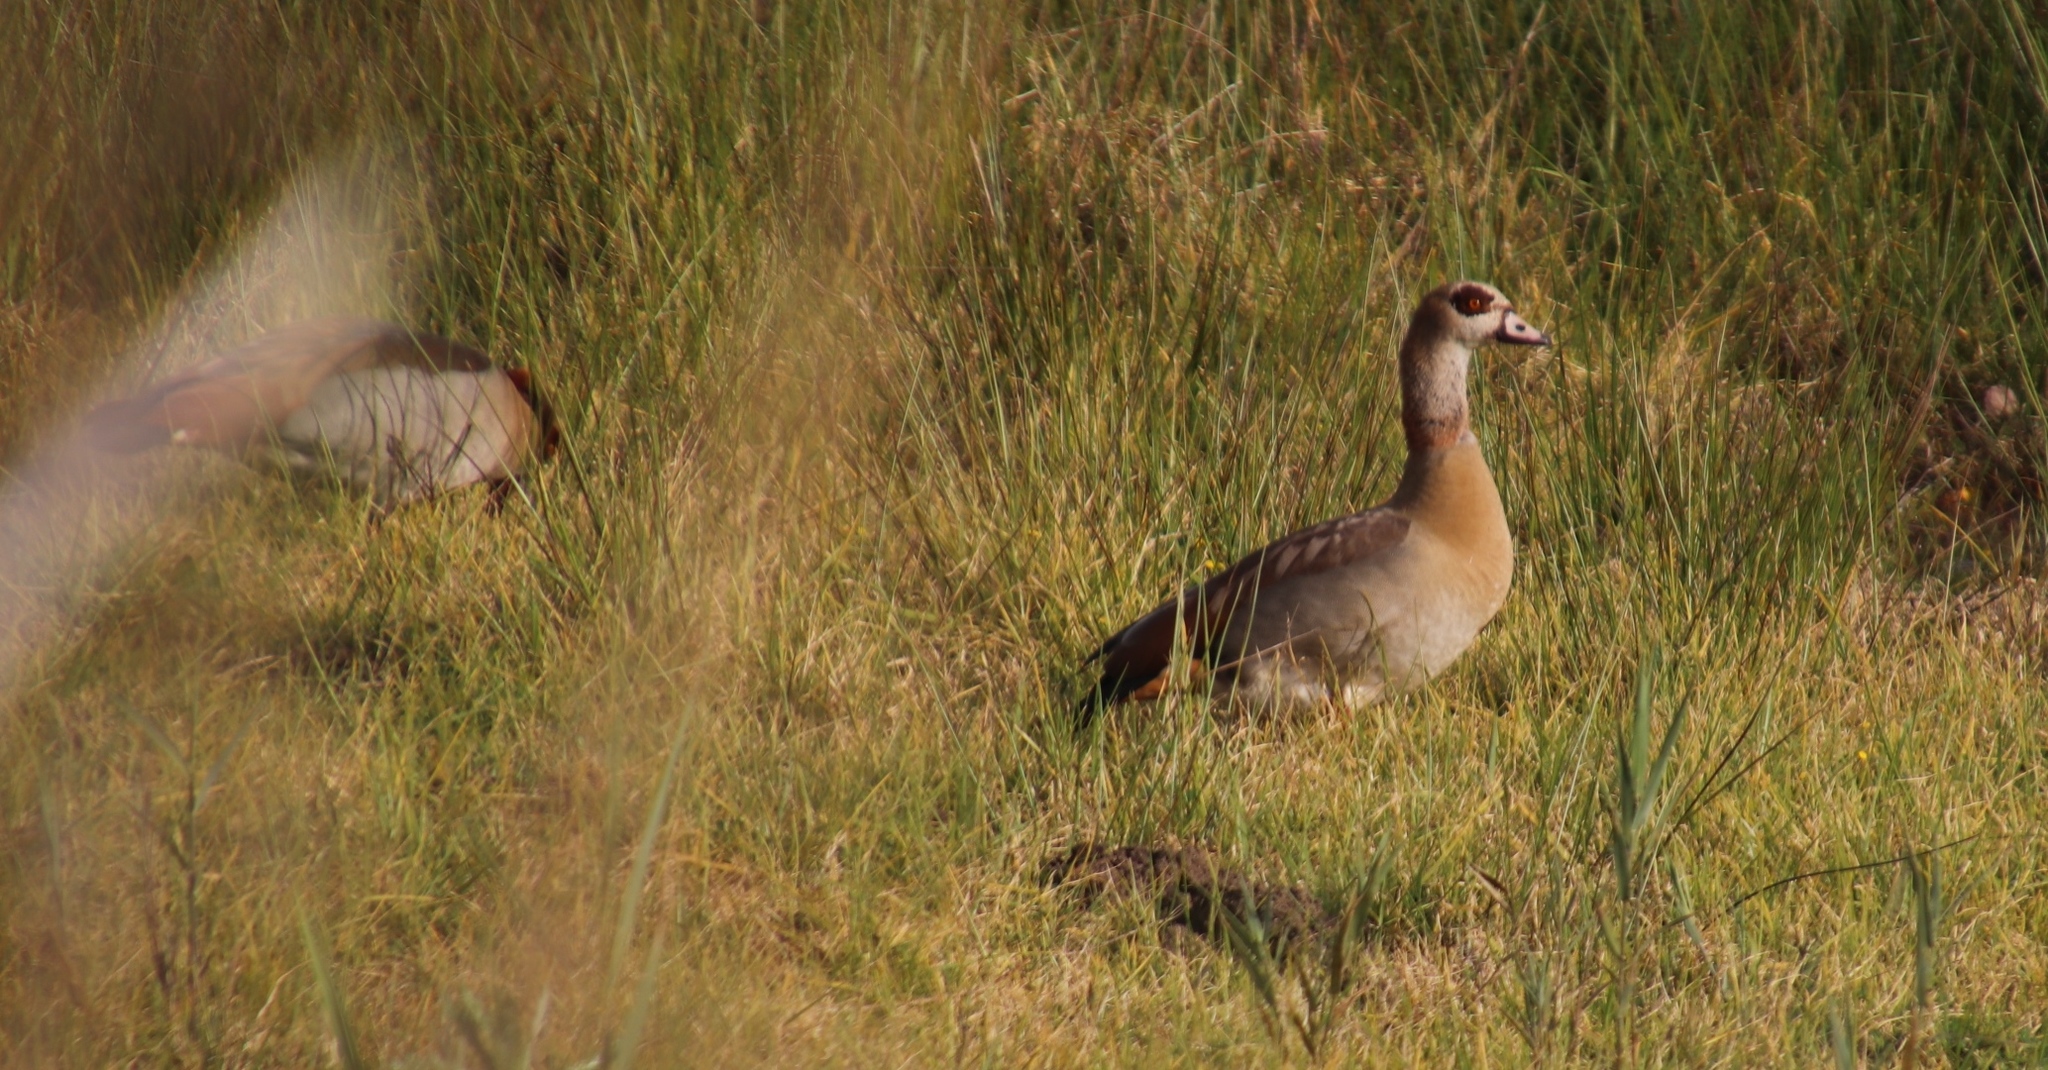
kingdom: Animalia
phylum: Chordata
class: Aves
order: Anseriformes
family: Anatidae
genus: Alopochen
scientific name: Alopochen aegyptiaca
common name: Egyptian goose
